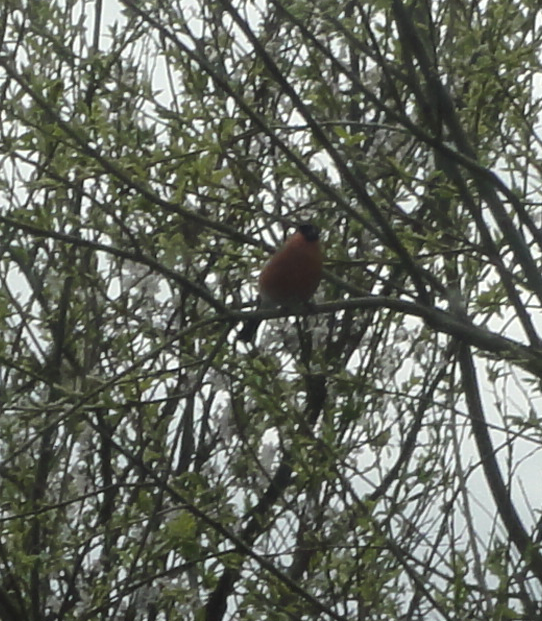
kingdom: Animalia
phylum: Chordata
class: Aves
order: Passeriformes
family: Fringillidae
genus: Pyrrhula
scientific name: Pyrrhula pyrrhula
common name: Eurasian bullfinch
